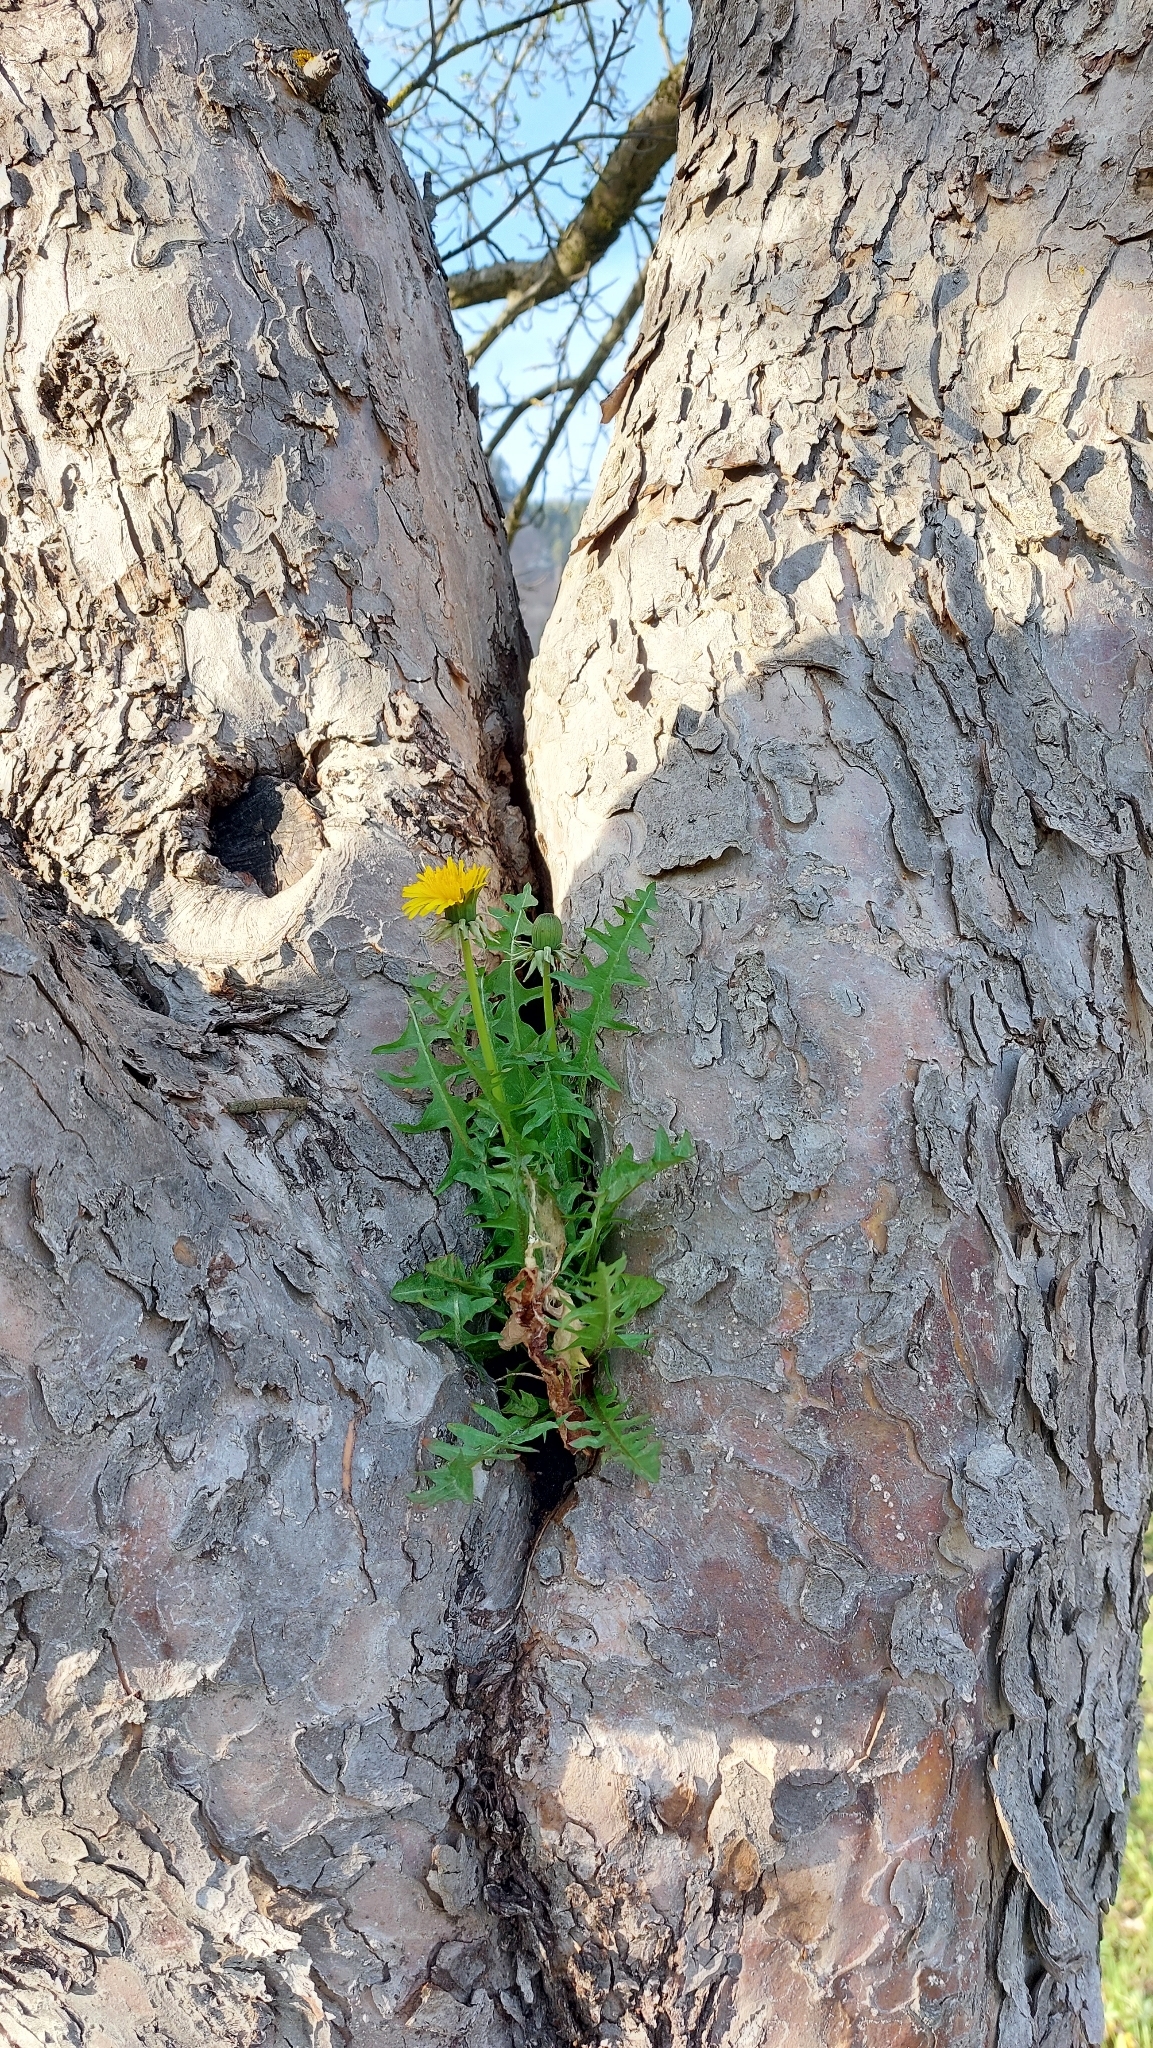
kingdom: Plantae
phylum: Tracheophyta
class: Magnoliopsida
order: Asterales
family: Asteraceae
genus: Taraxacum
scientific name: Taraxacum
